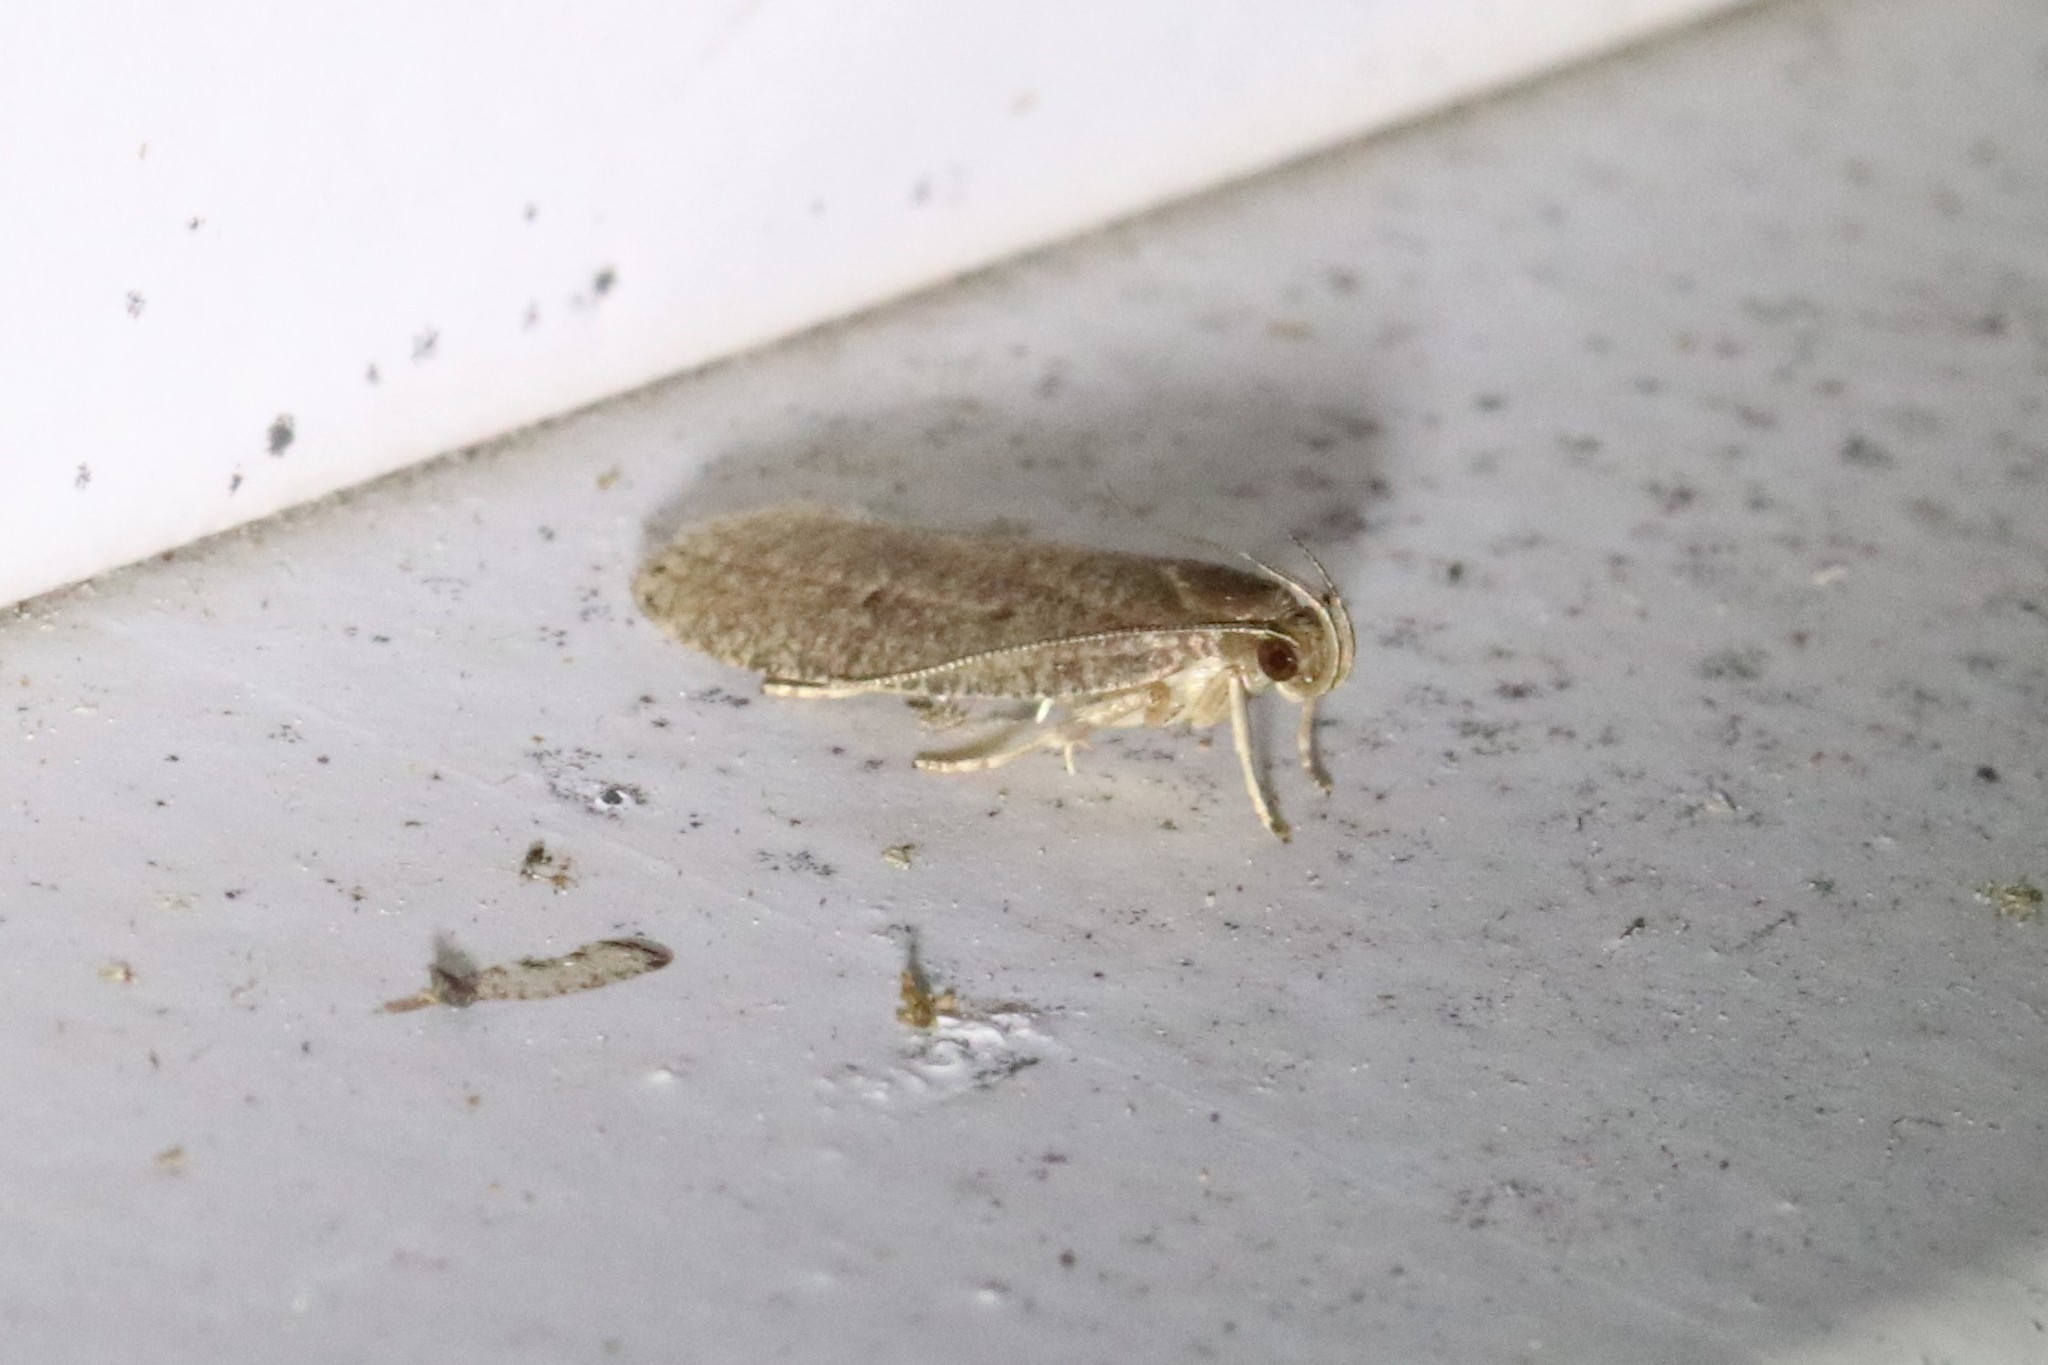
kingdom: Animalia
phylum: Arthropoda
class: Insecta
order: Lepidoptera
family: Depressariidae
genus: Psilocorsis
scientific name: Psilocorsis reflexella
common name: Dotted leaftier moth
